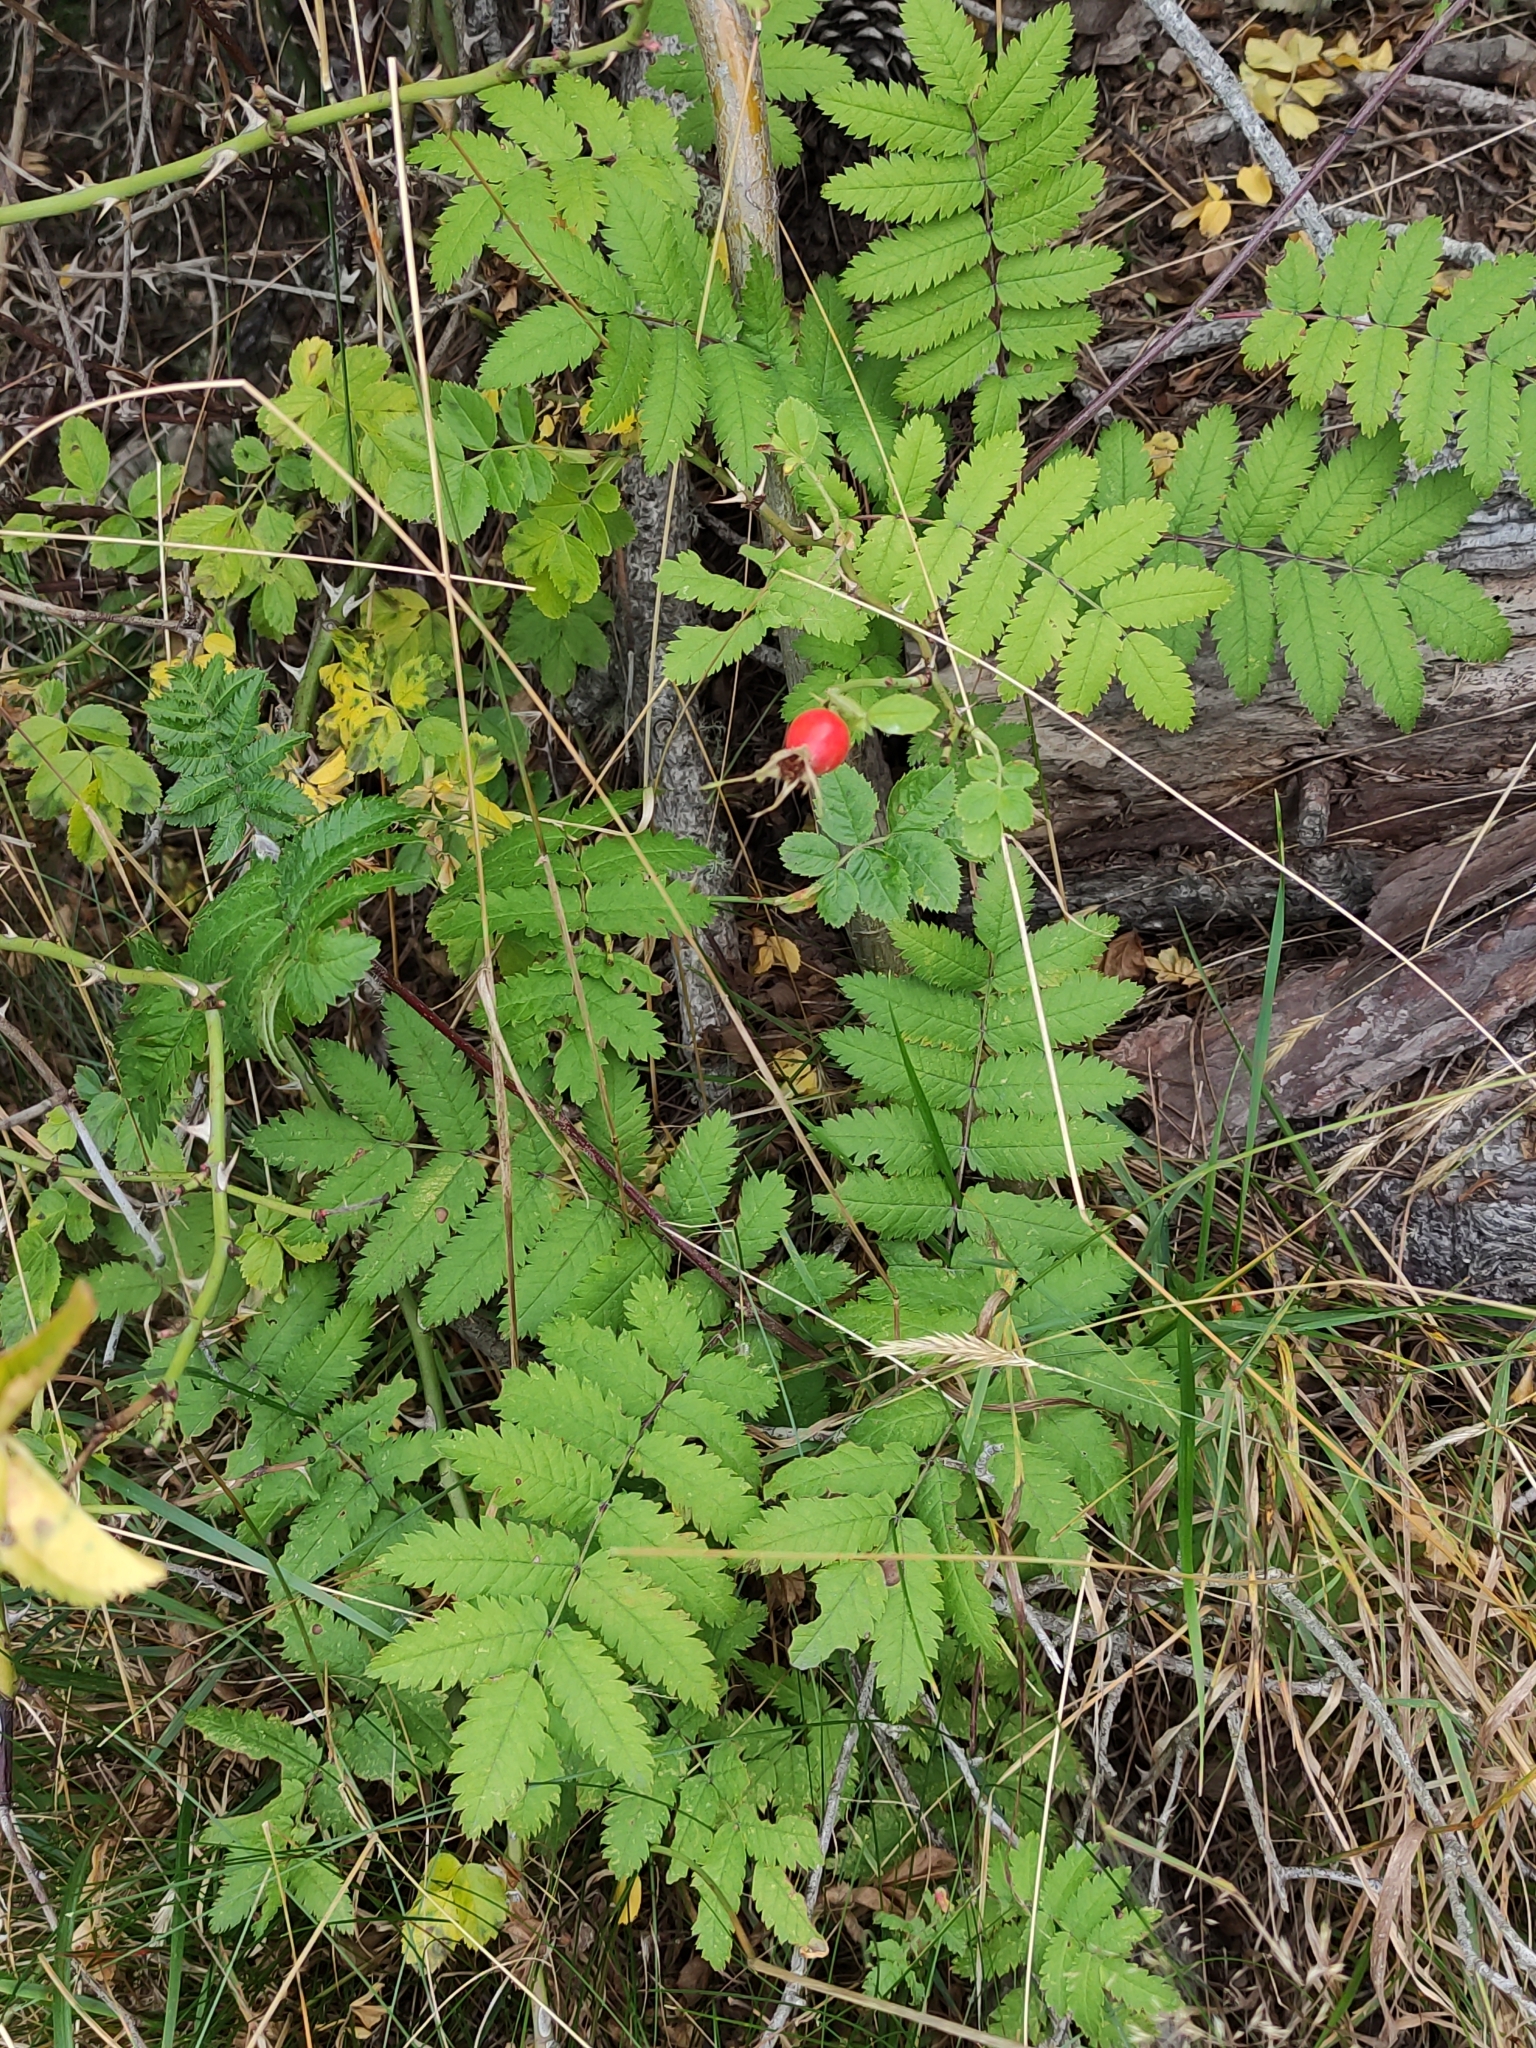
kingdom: Plantae
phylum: Tracheophyta
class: Magnoliopsida
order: Rosales
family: Rosaceae
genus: Sorbus
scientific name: Sorbus aucuparia
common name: Rowan
